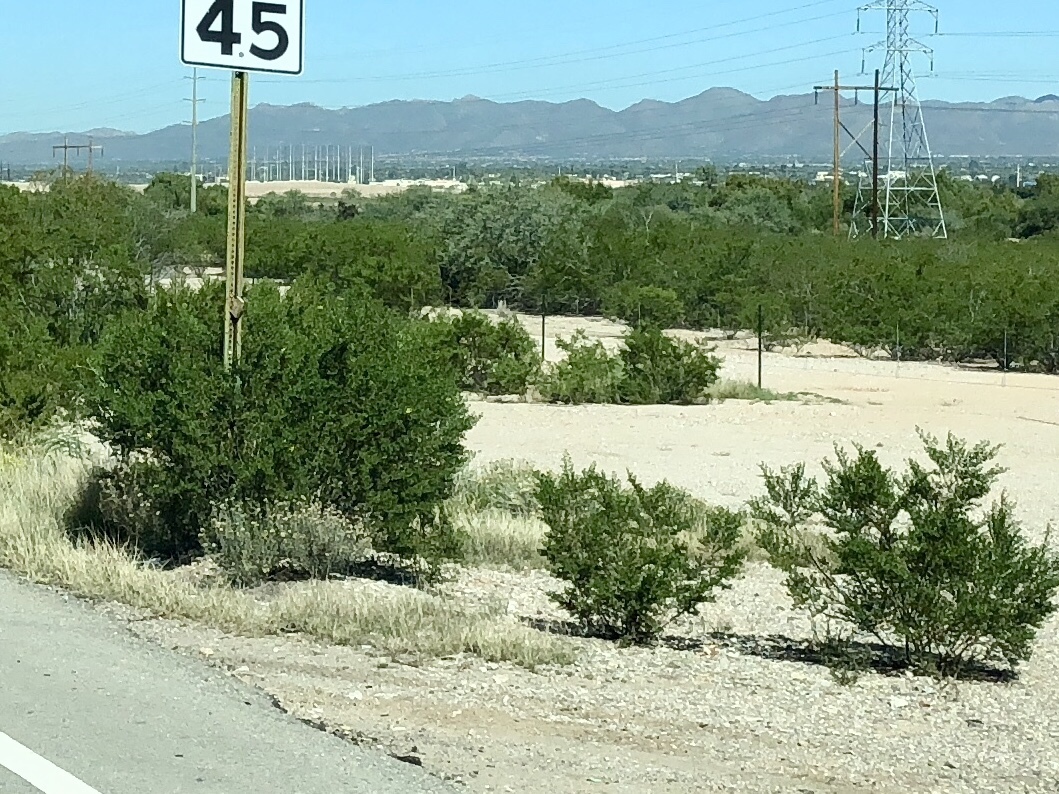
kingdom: Plantae
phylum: Tracheophyta
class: Magnoliopsida
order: Zygophyllales
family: Zygophyllaceae
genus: Larrea
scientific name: Larrea tridentata
